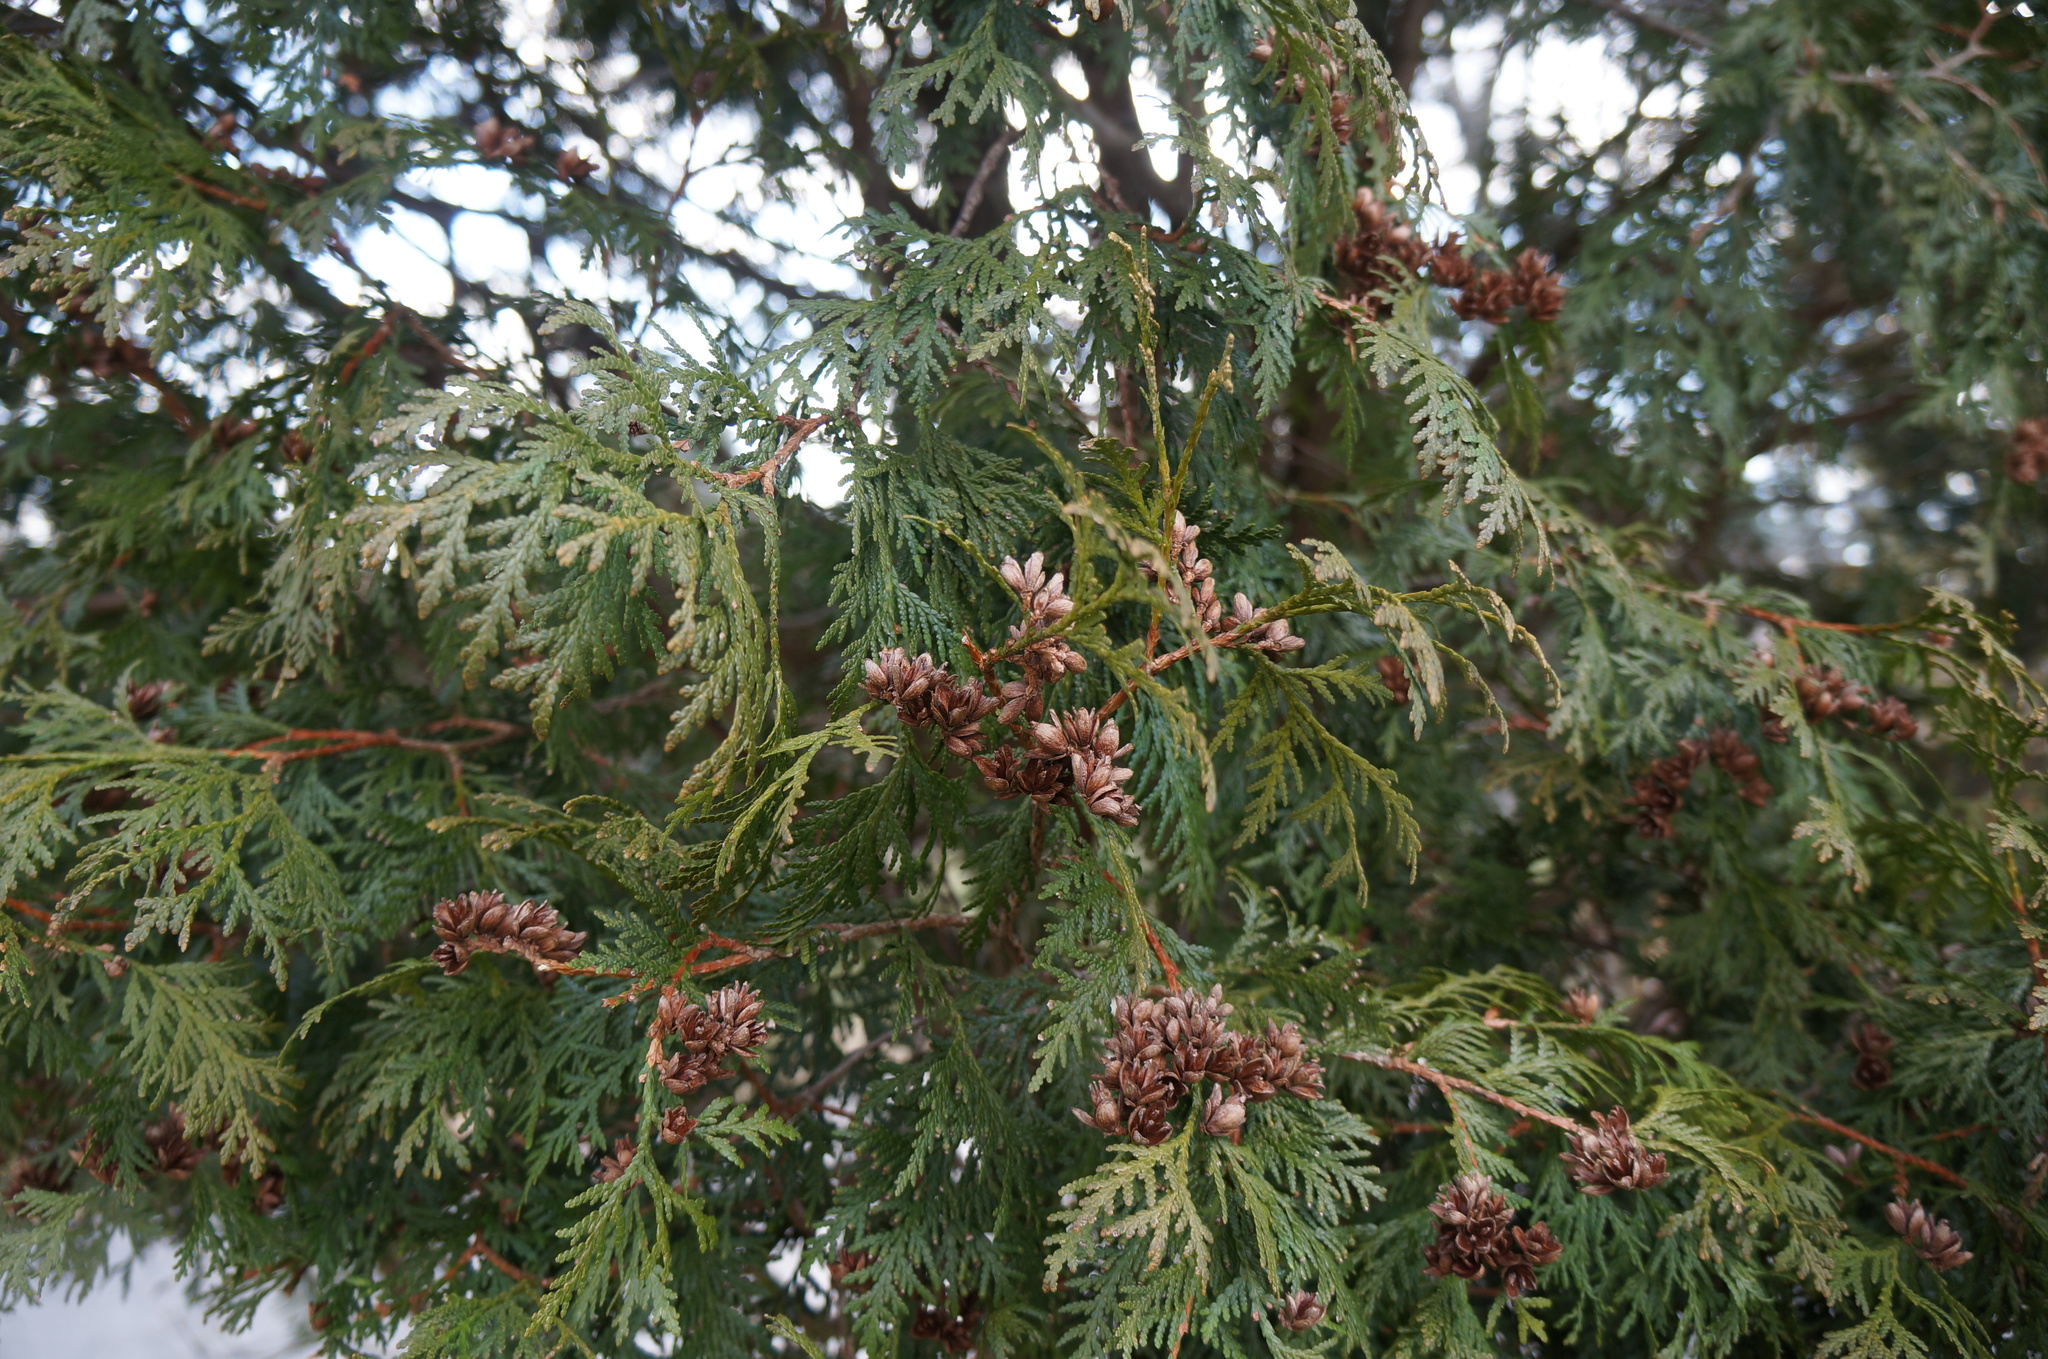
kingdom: Plantae
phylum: Tracheophyta
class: Pinopsida
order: Pinales
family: Cupressaceae
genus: Thuja
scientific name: Thuja occidentalis
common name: Northern white-cedar
